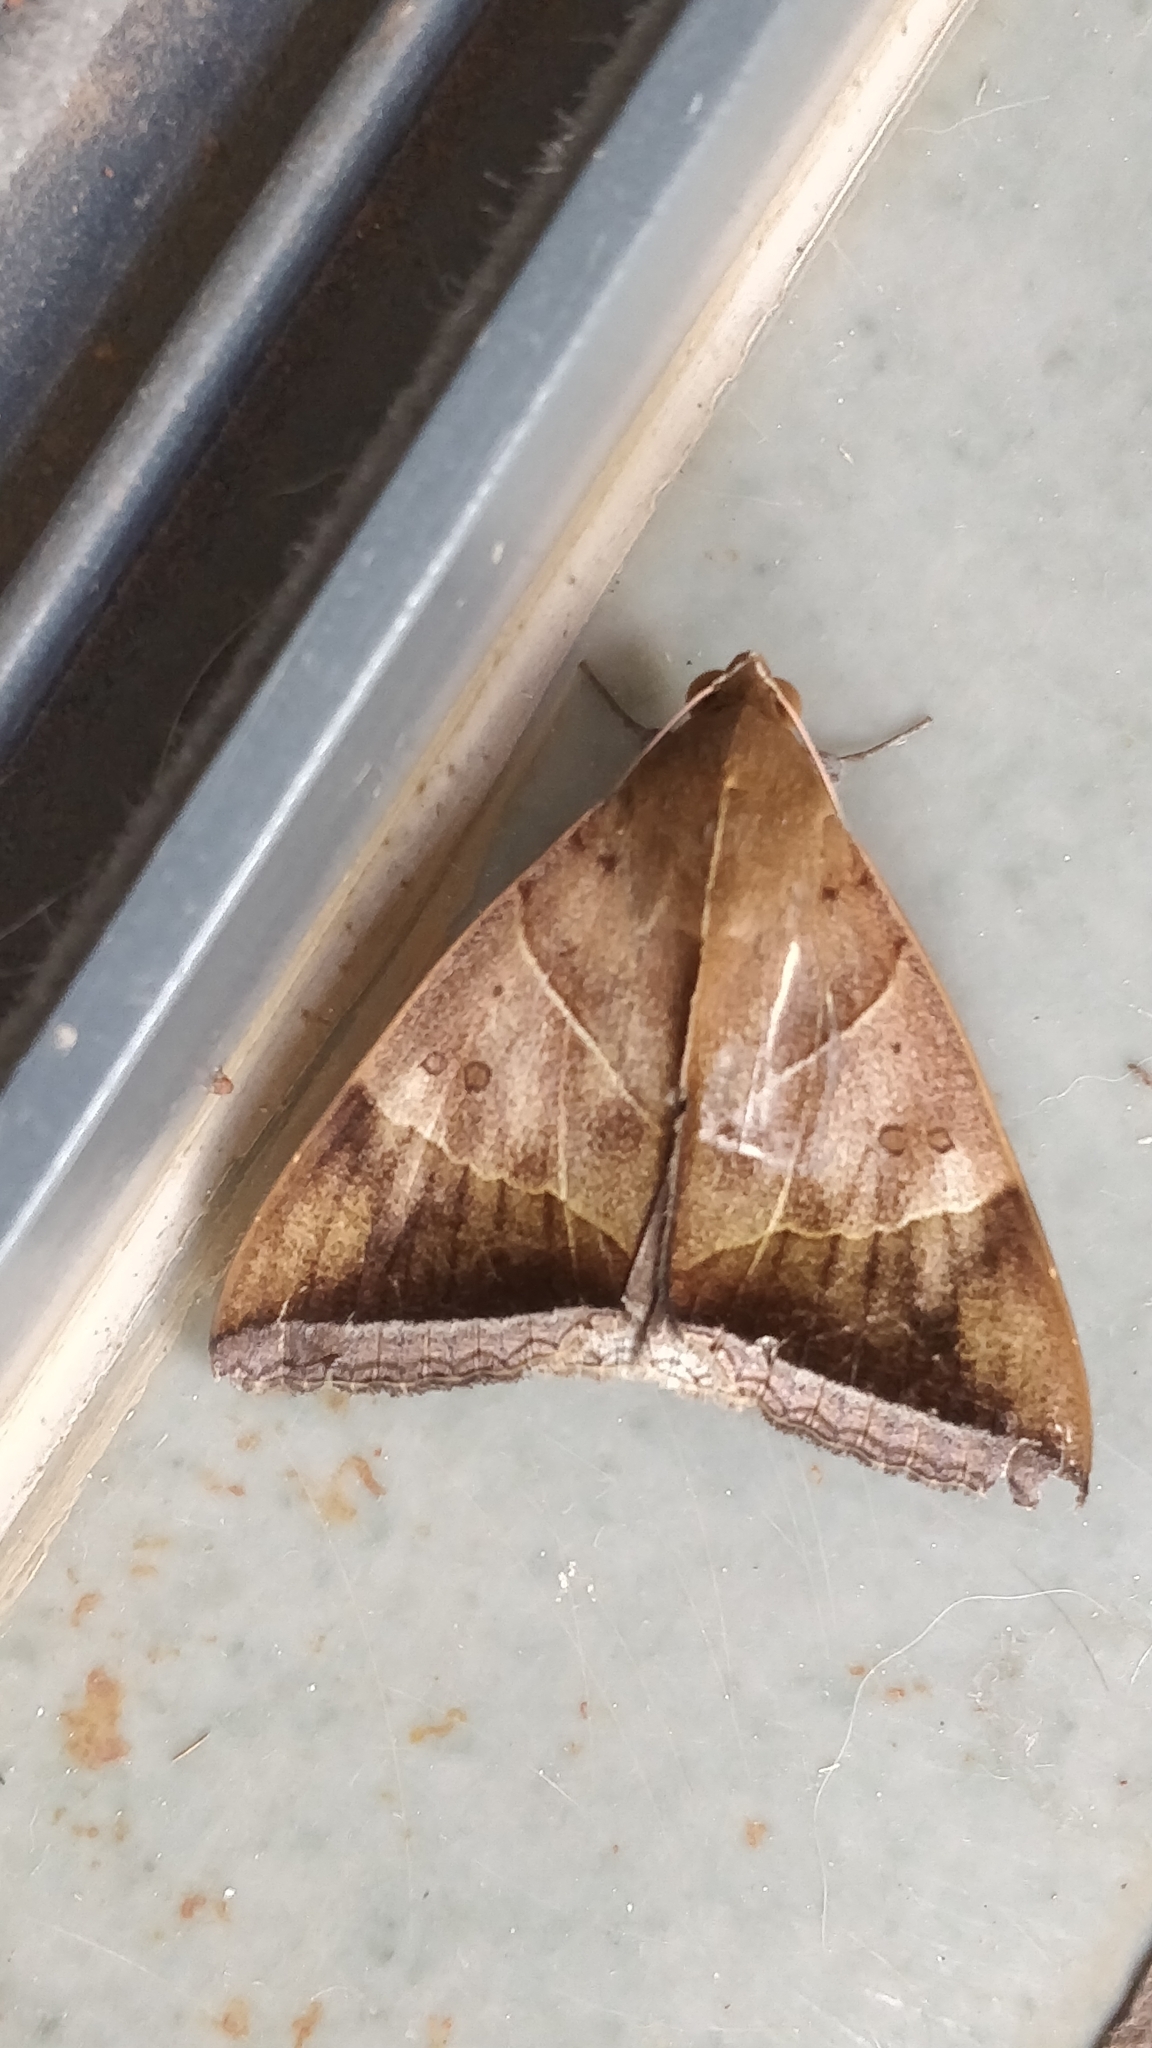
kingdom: Animalia
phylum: Arthropoda
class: Insecta
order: Lepidoptera
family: Erebidae
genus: Artena
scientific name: Artena dotata
